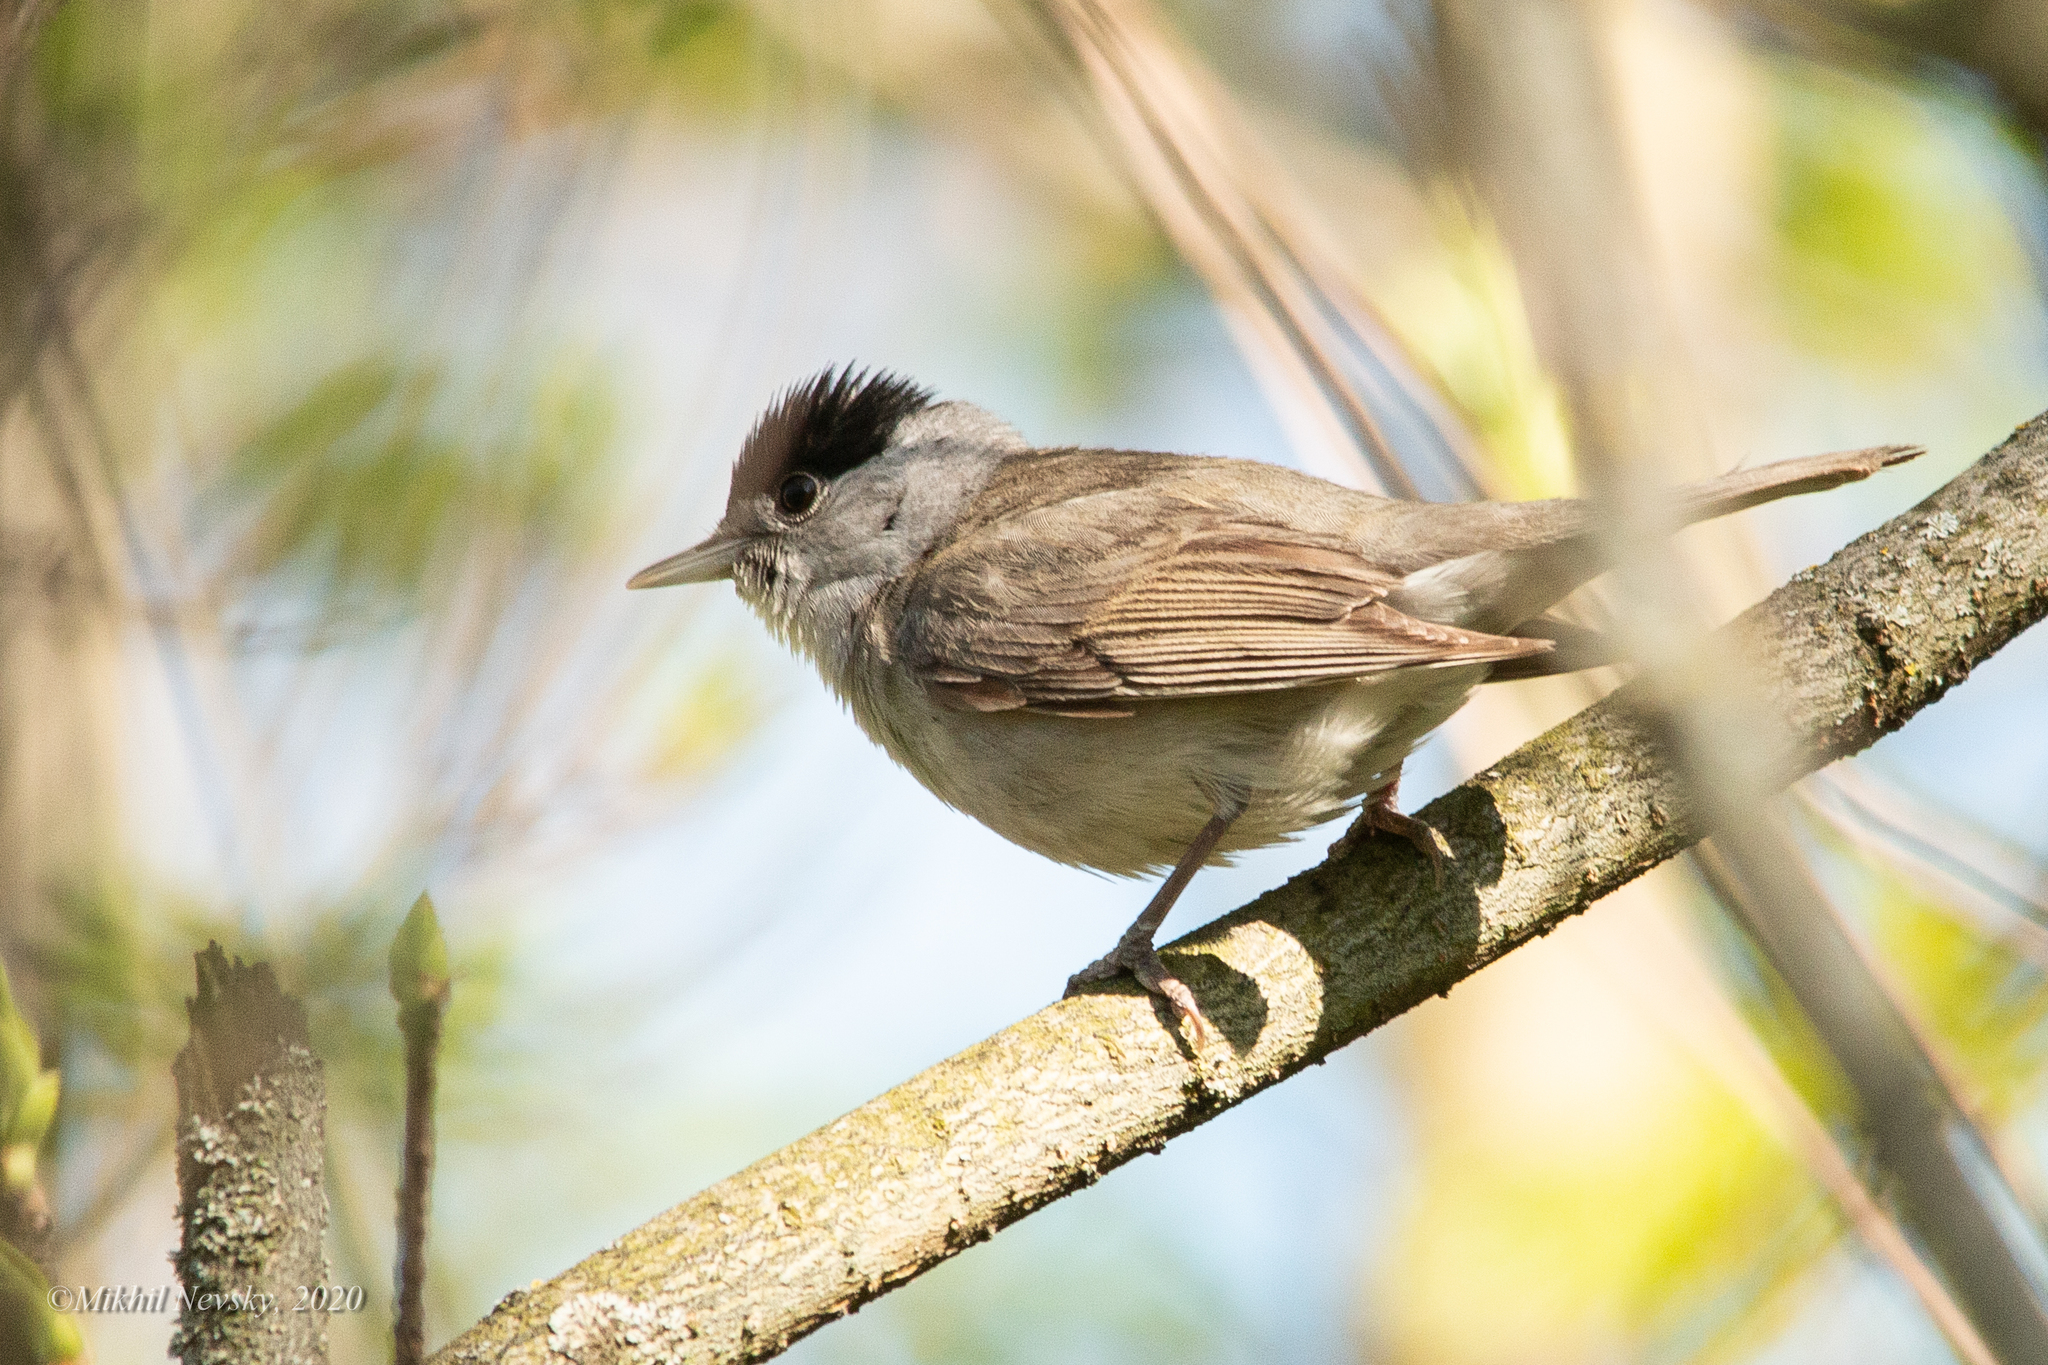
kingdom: Animalia
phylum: Chordata
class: Aves
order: Passeriformes
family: Sylviidae
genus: Sylvia
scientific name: Sylvia atricapilla
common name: Eurasian blackcap
